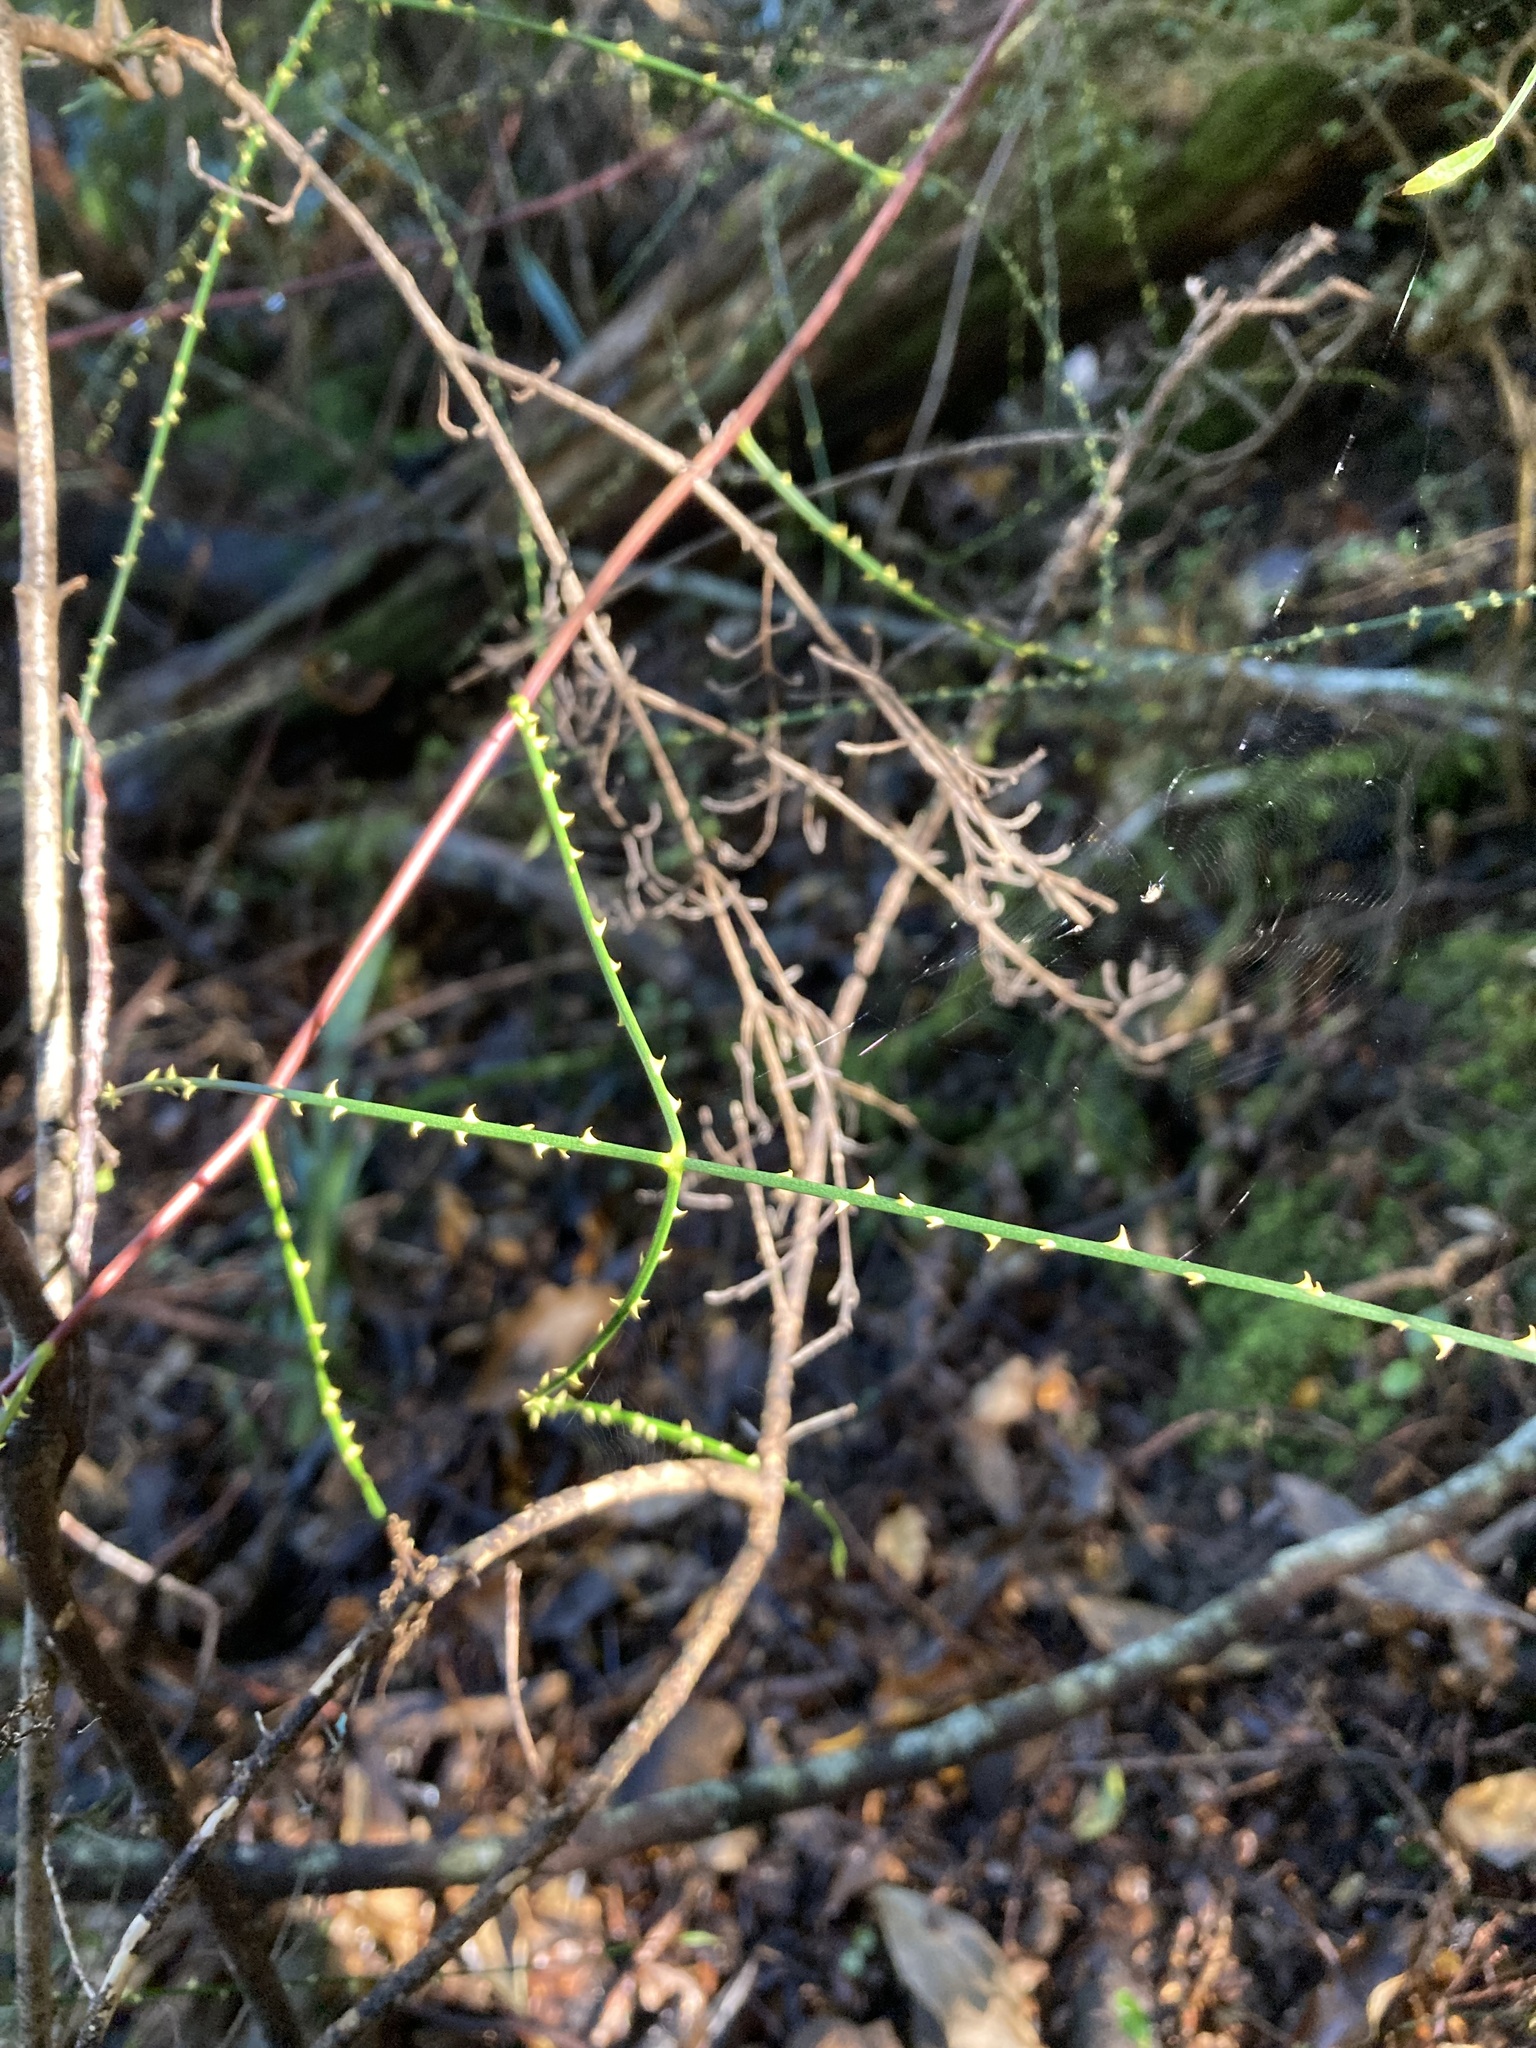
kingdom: Plantae
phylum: Tracheophyta
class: Magnoliopsida
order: Rosales
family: Rosaceae
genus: Rubus
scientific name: Rubus squarrosus
